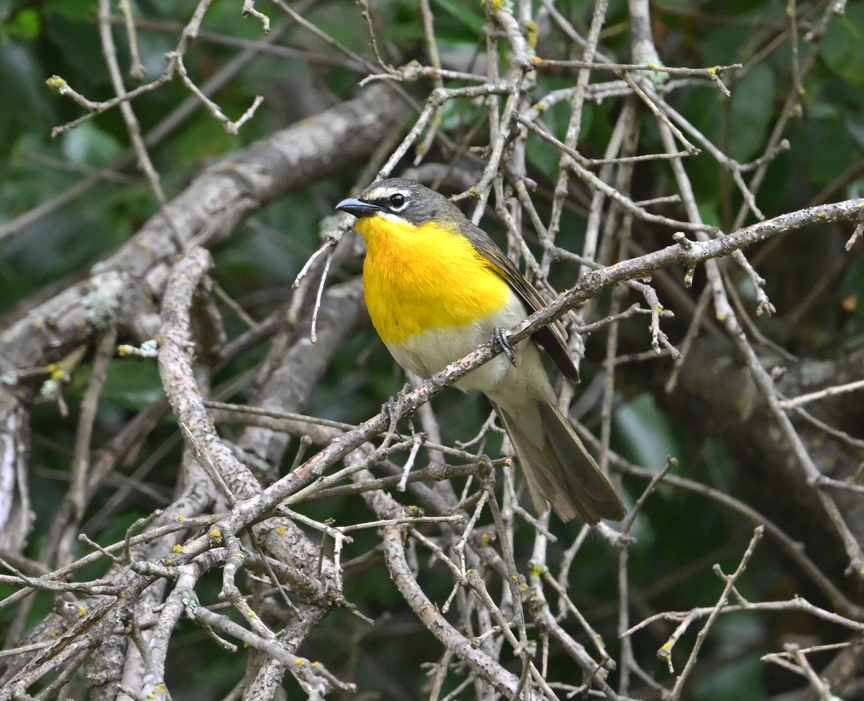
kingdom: Animalia
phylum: Chordata
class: Aves
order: Passeriformes
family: Parulidae
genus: Icteria
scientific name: Icteria virens
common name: Yellow-breasted chat
